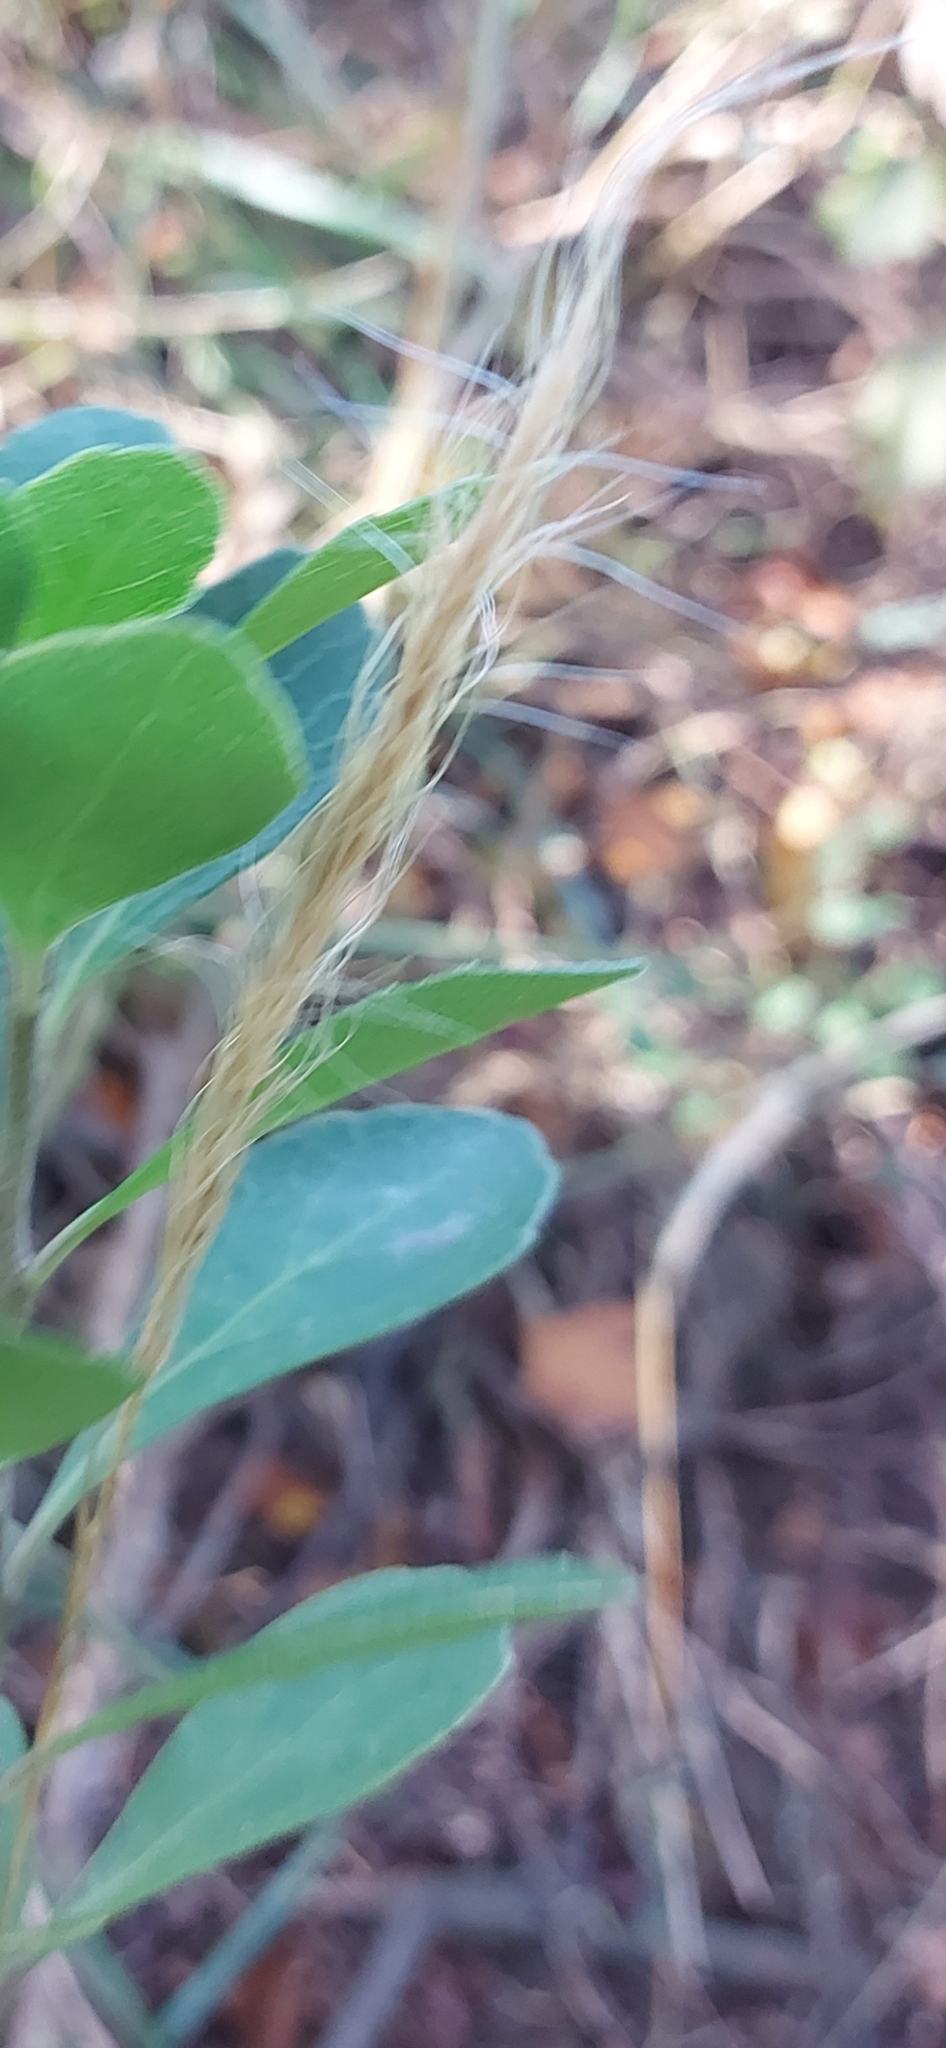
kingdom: Plantae
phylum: Tracheophyta
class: Liliopsida
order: Poales
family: Poaceae
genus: Dichelachne
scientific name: Dichelachne crinita
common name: Clovenfoot plumegrass
